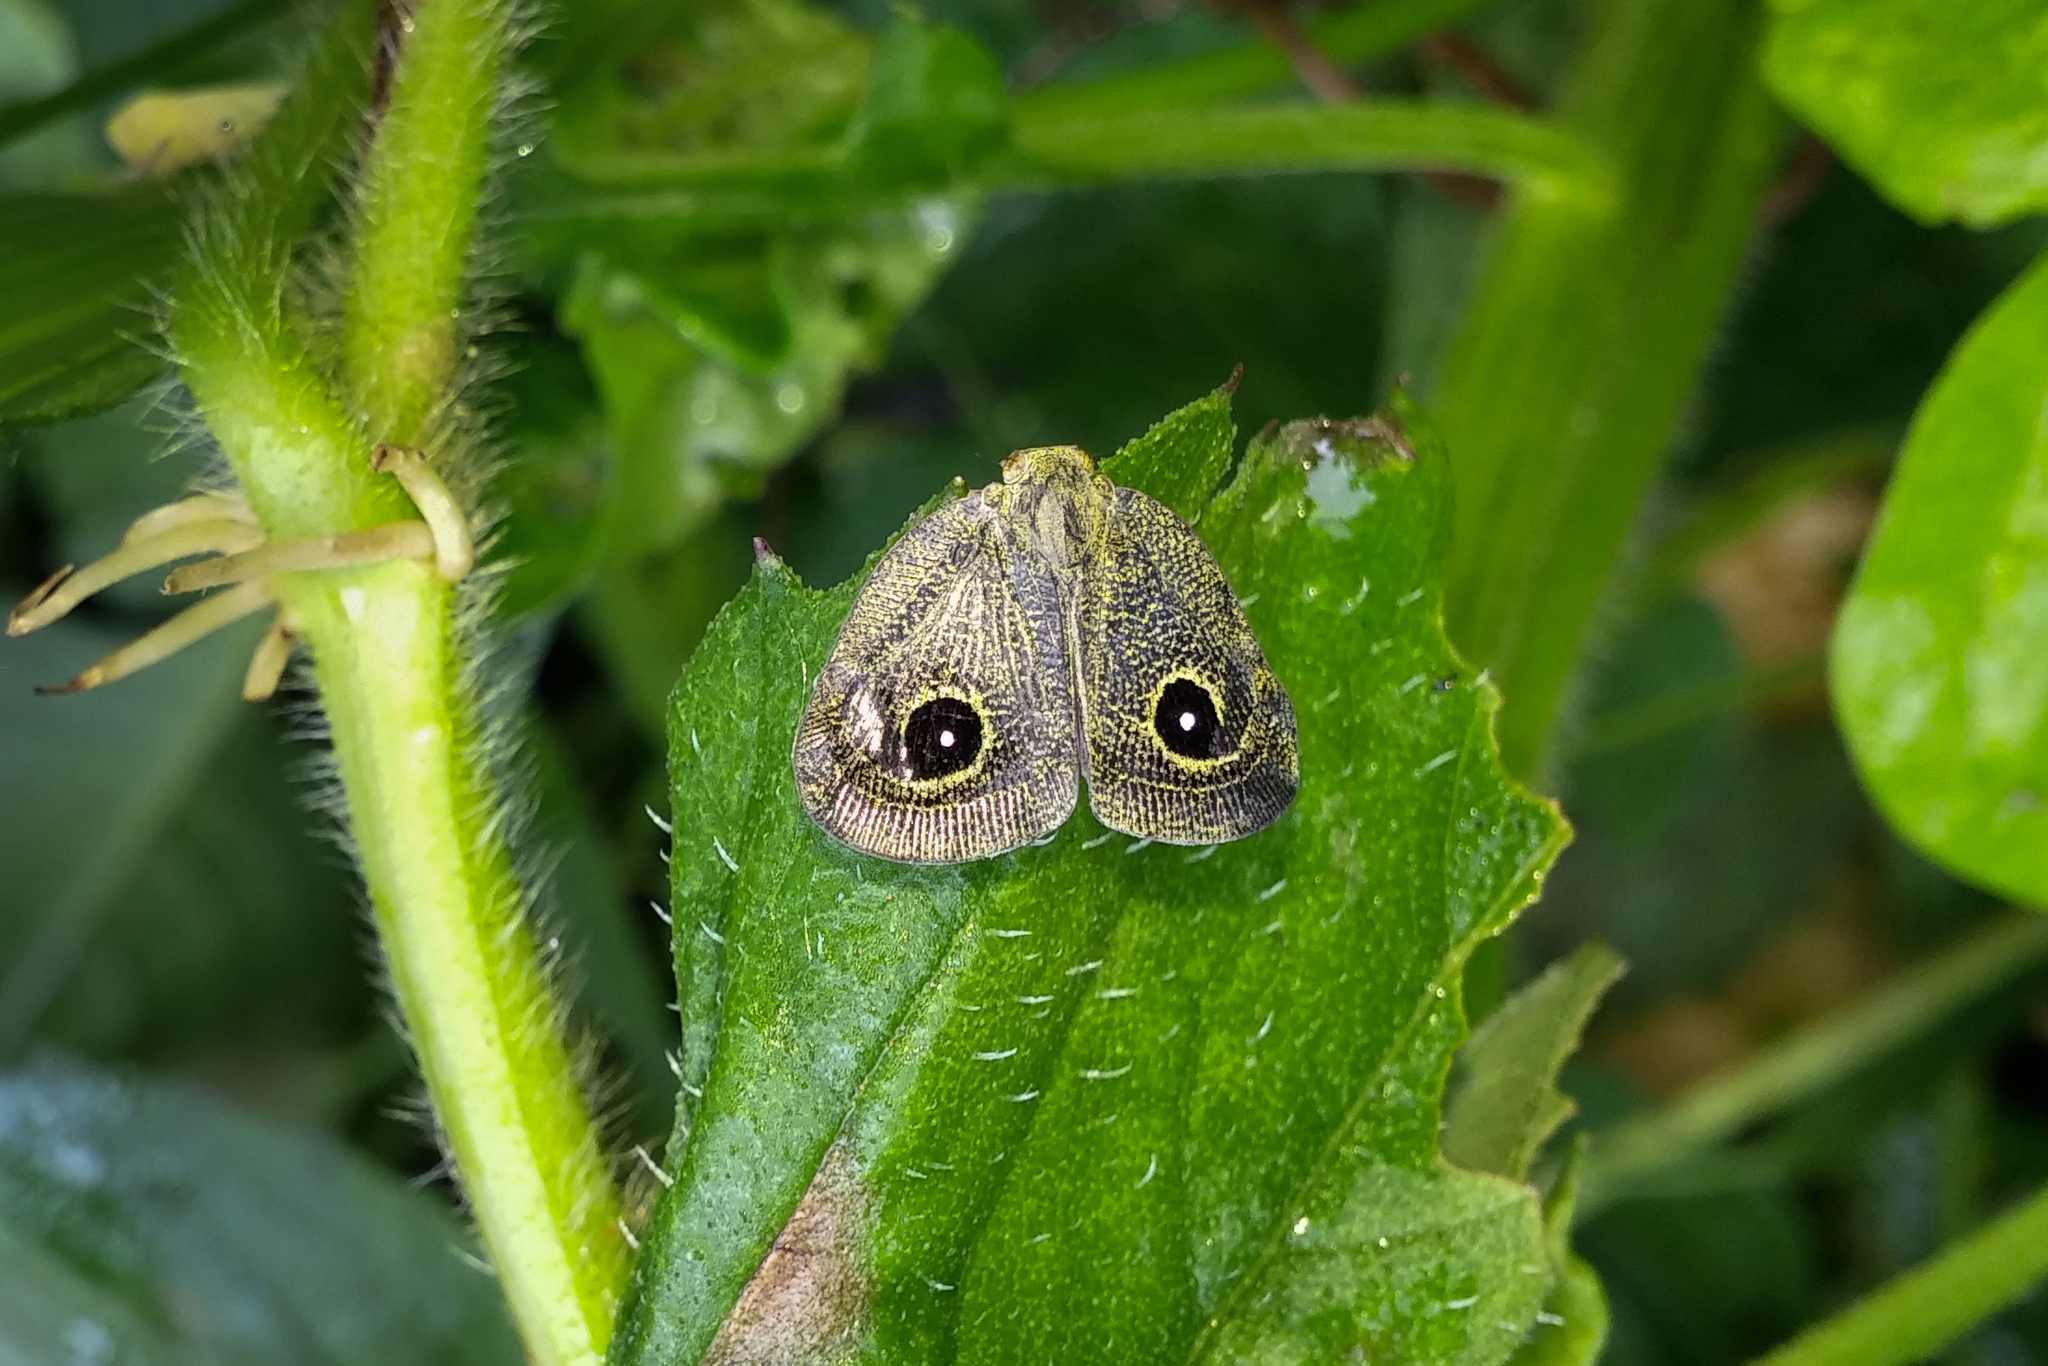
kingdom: Animalia
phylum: Arthropoda
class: Insecta
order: Hemiptera
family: Ricaniidae
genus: Euricania
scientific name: Euricania oculata
